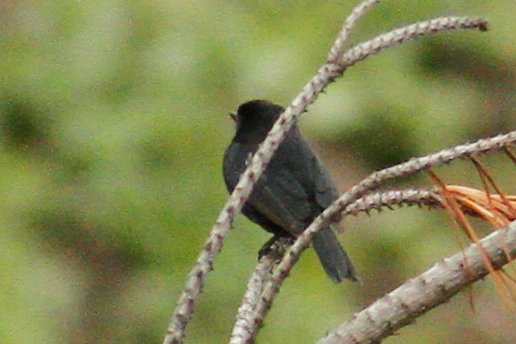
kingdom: Animalia
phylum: Chordata
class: Aves
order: Passeriformes
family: Thraupidae
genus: Diglossa
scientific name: Diglossa humeralis
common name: Black flowerpiercer
